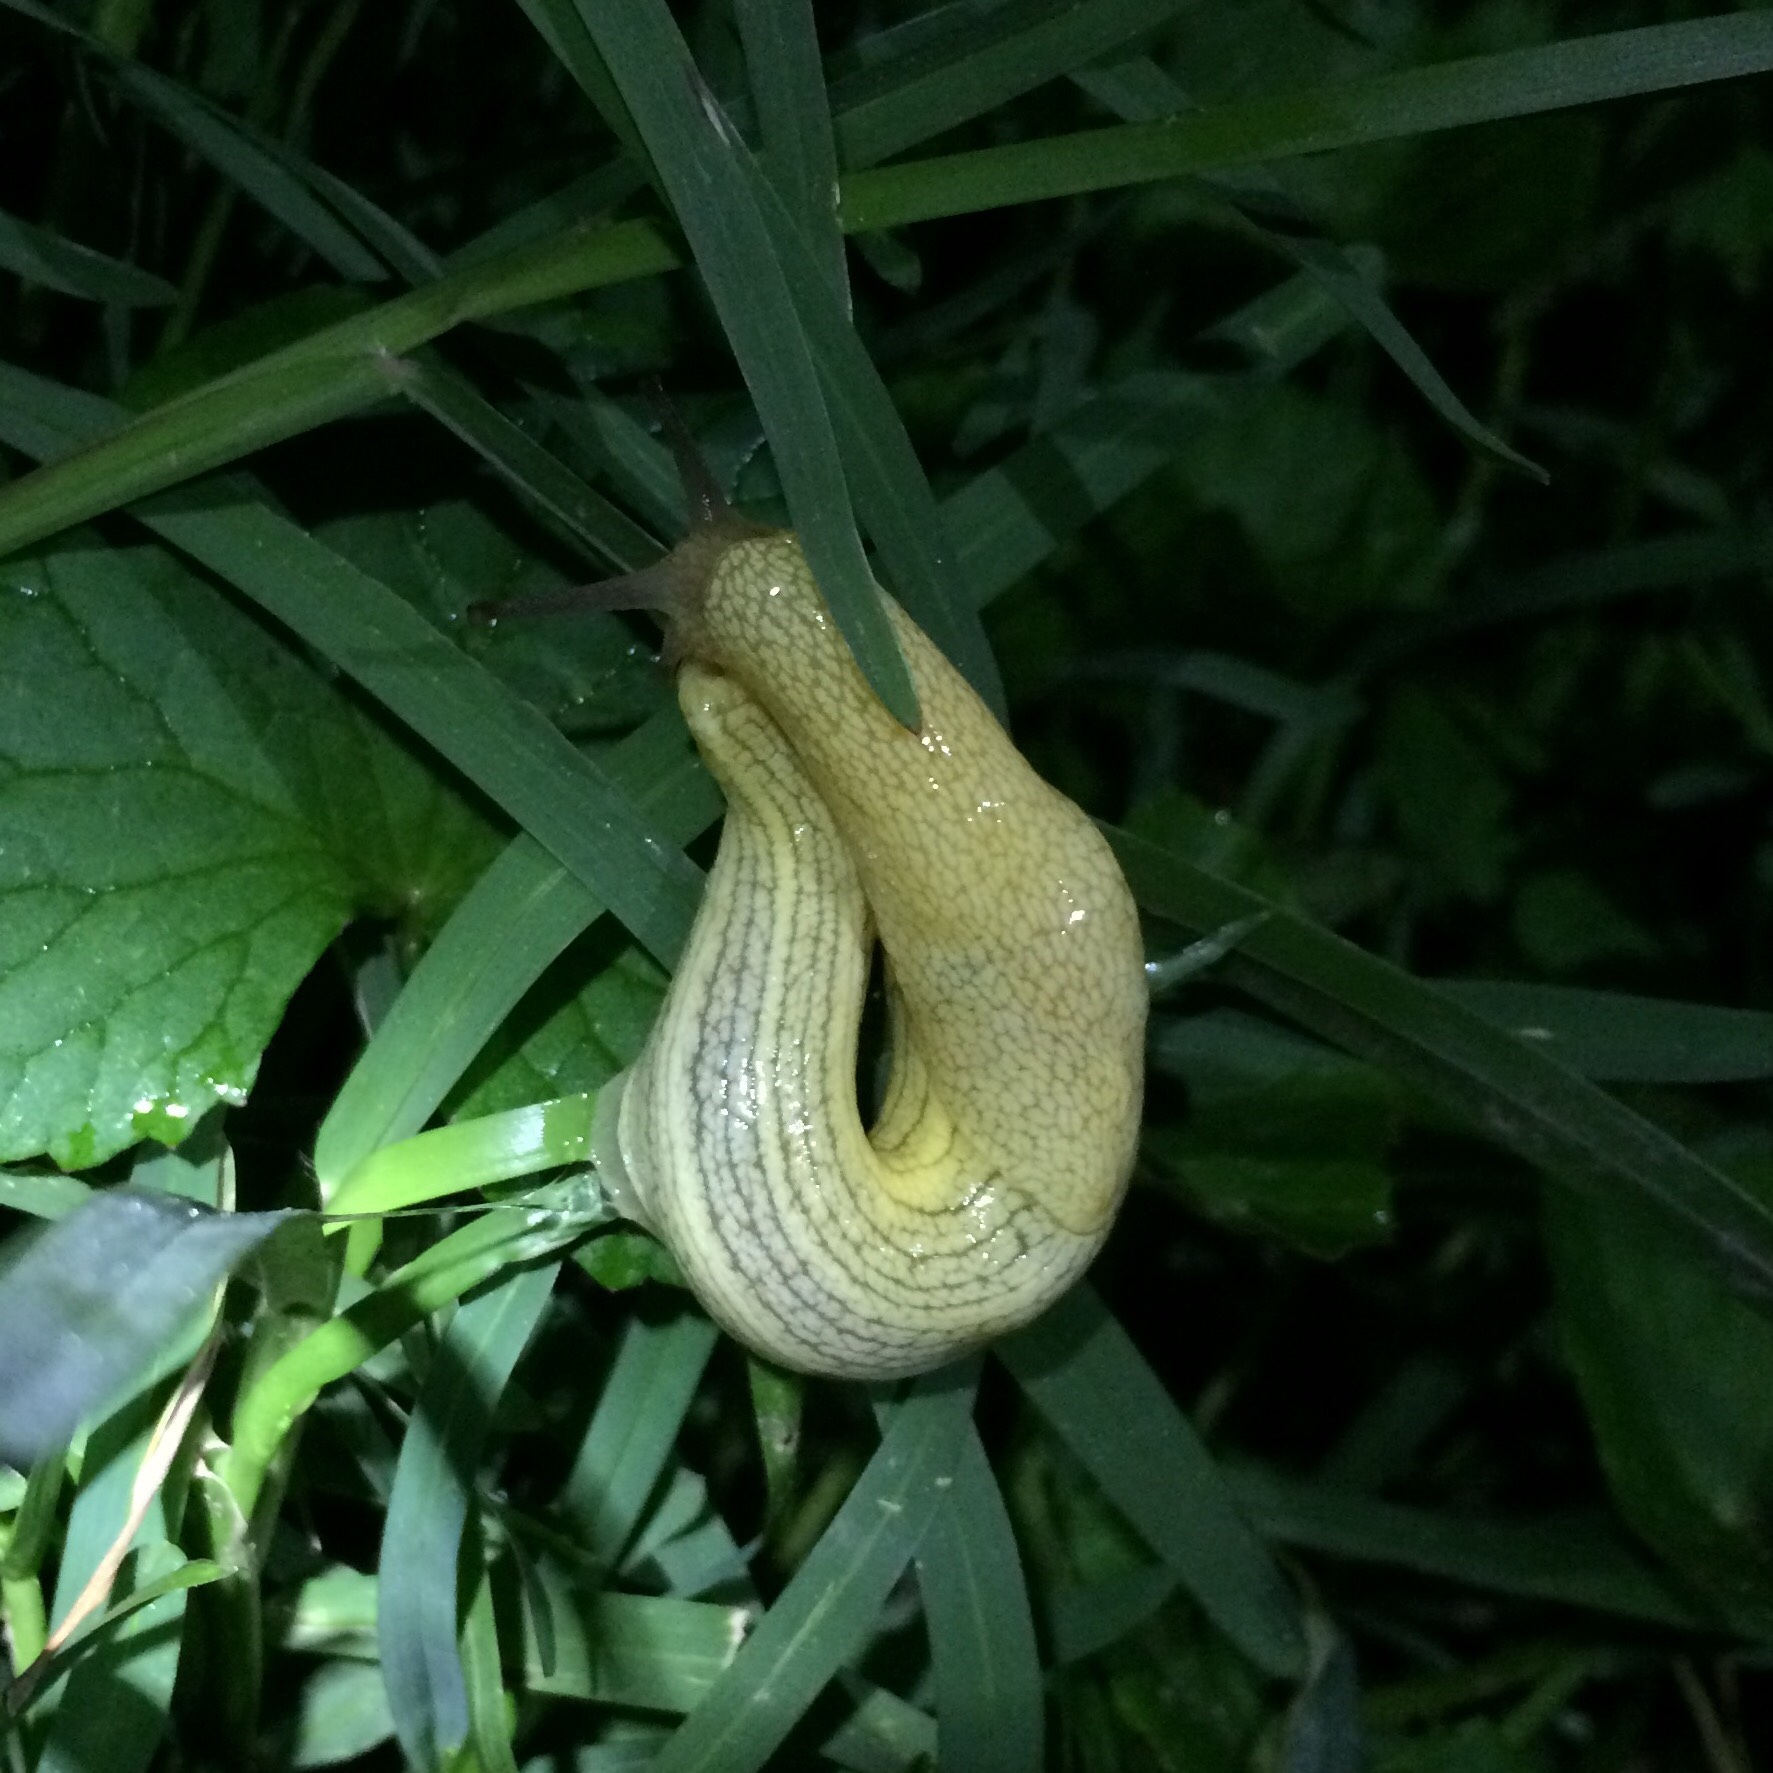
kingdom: Animalia
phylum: Mollusca
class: Gastropoda
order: Stylommatophora
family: Urocyclidae
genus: Elisolimax
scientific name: Elisolimax flavescens
